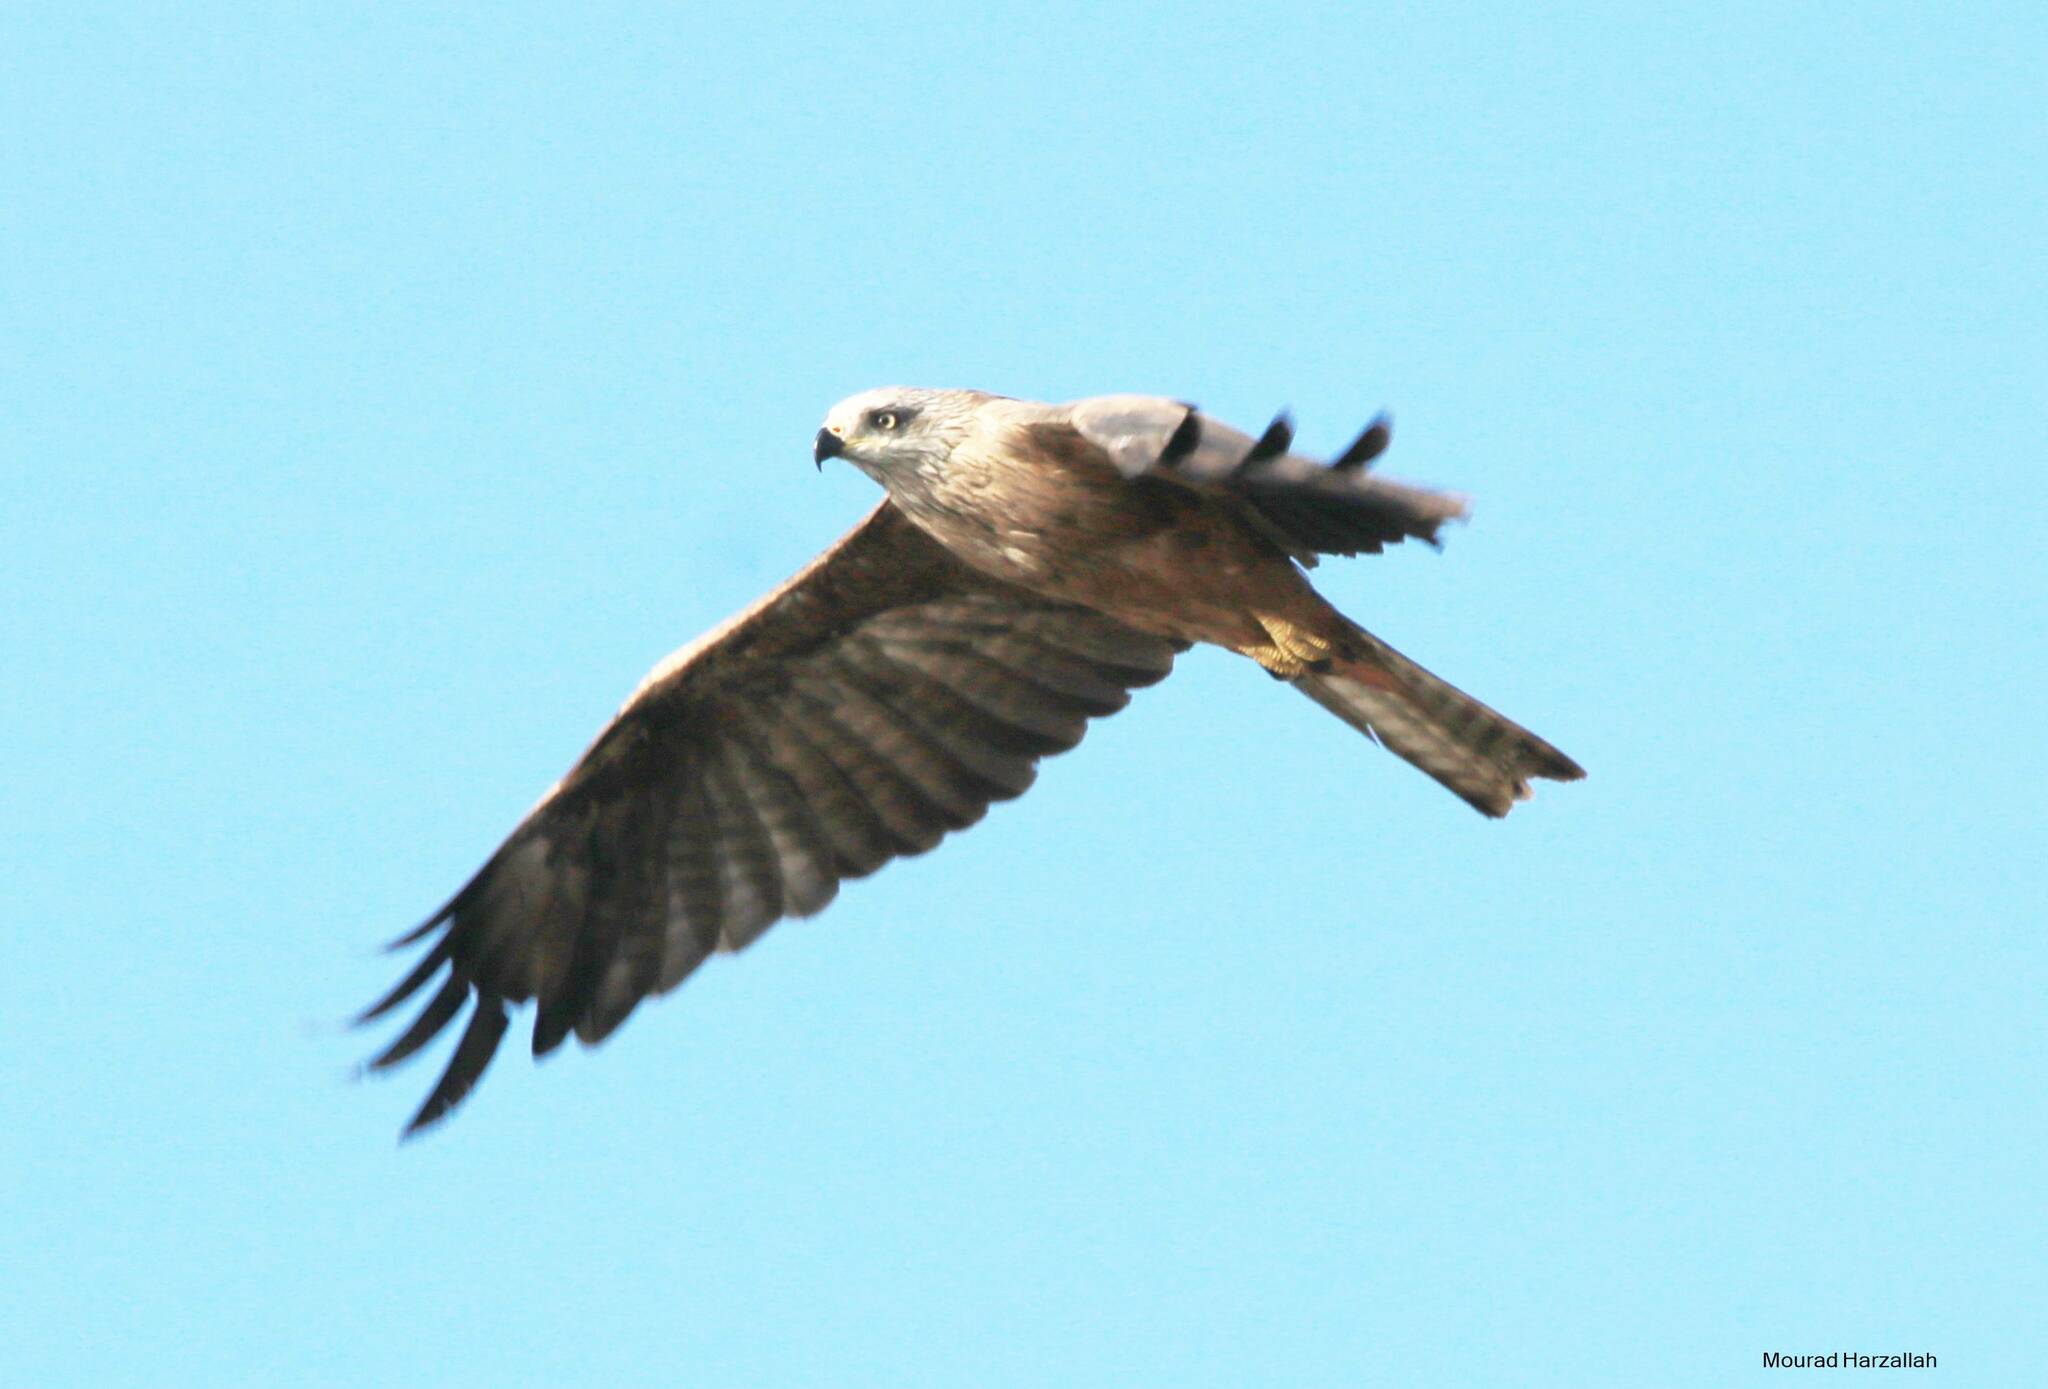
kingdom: Animalia
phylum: Chordata
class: Aves
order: Accipitriformes
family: Accipitridae
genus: Milvus
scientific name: Milvus migrans
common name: Black kite
